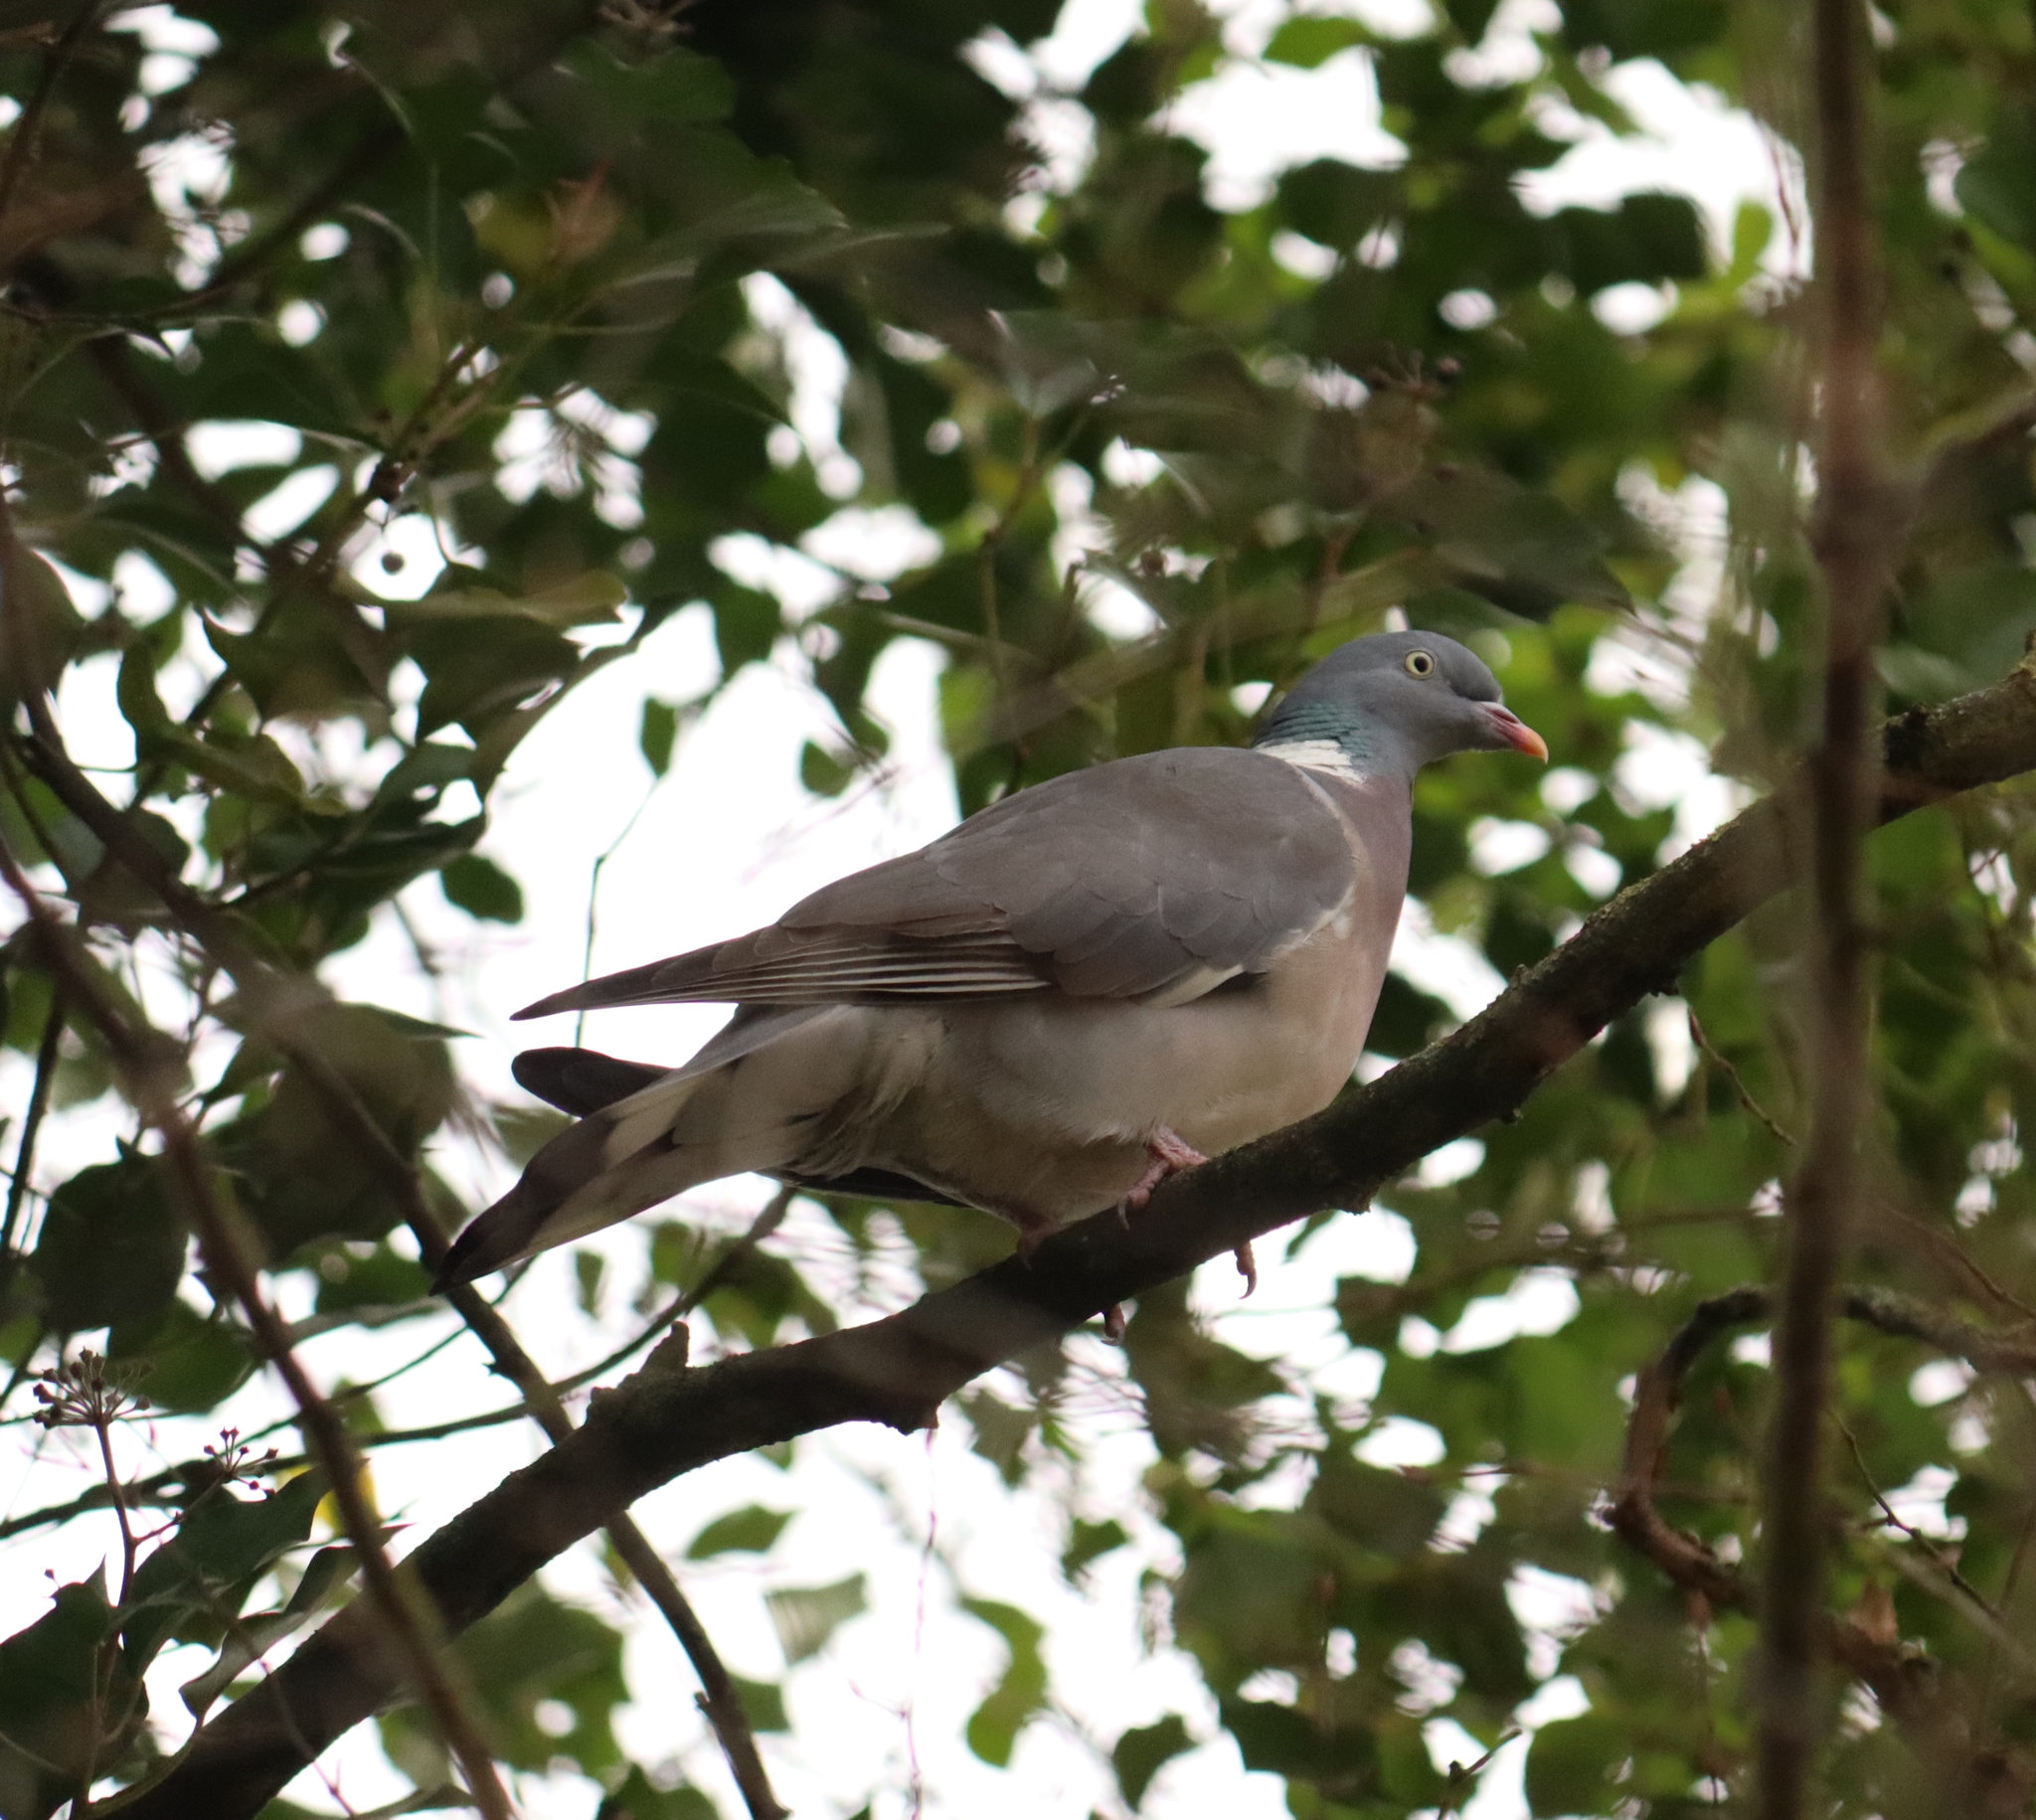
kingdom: Animalia
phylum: Chordata
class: Aves
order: Columbiformes
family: Columbidae
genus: Columba
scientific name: Columba palumbus
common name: Common wood pigeon
